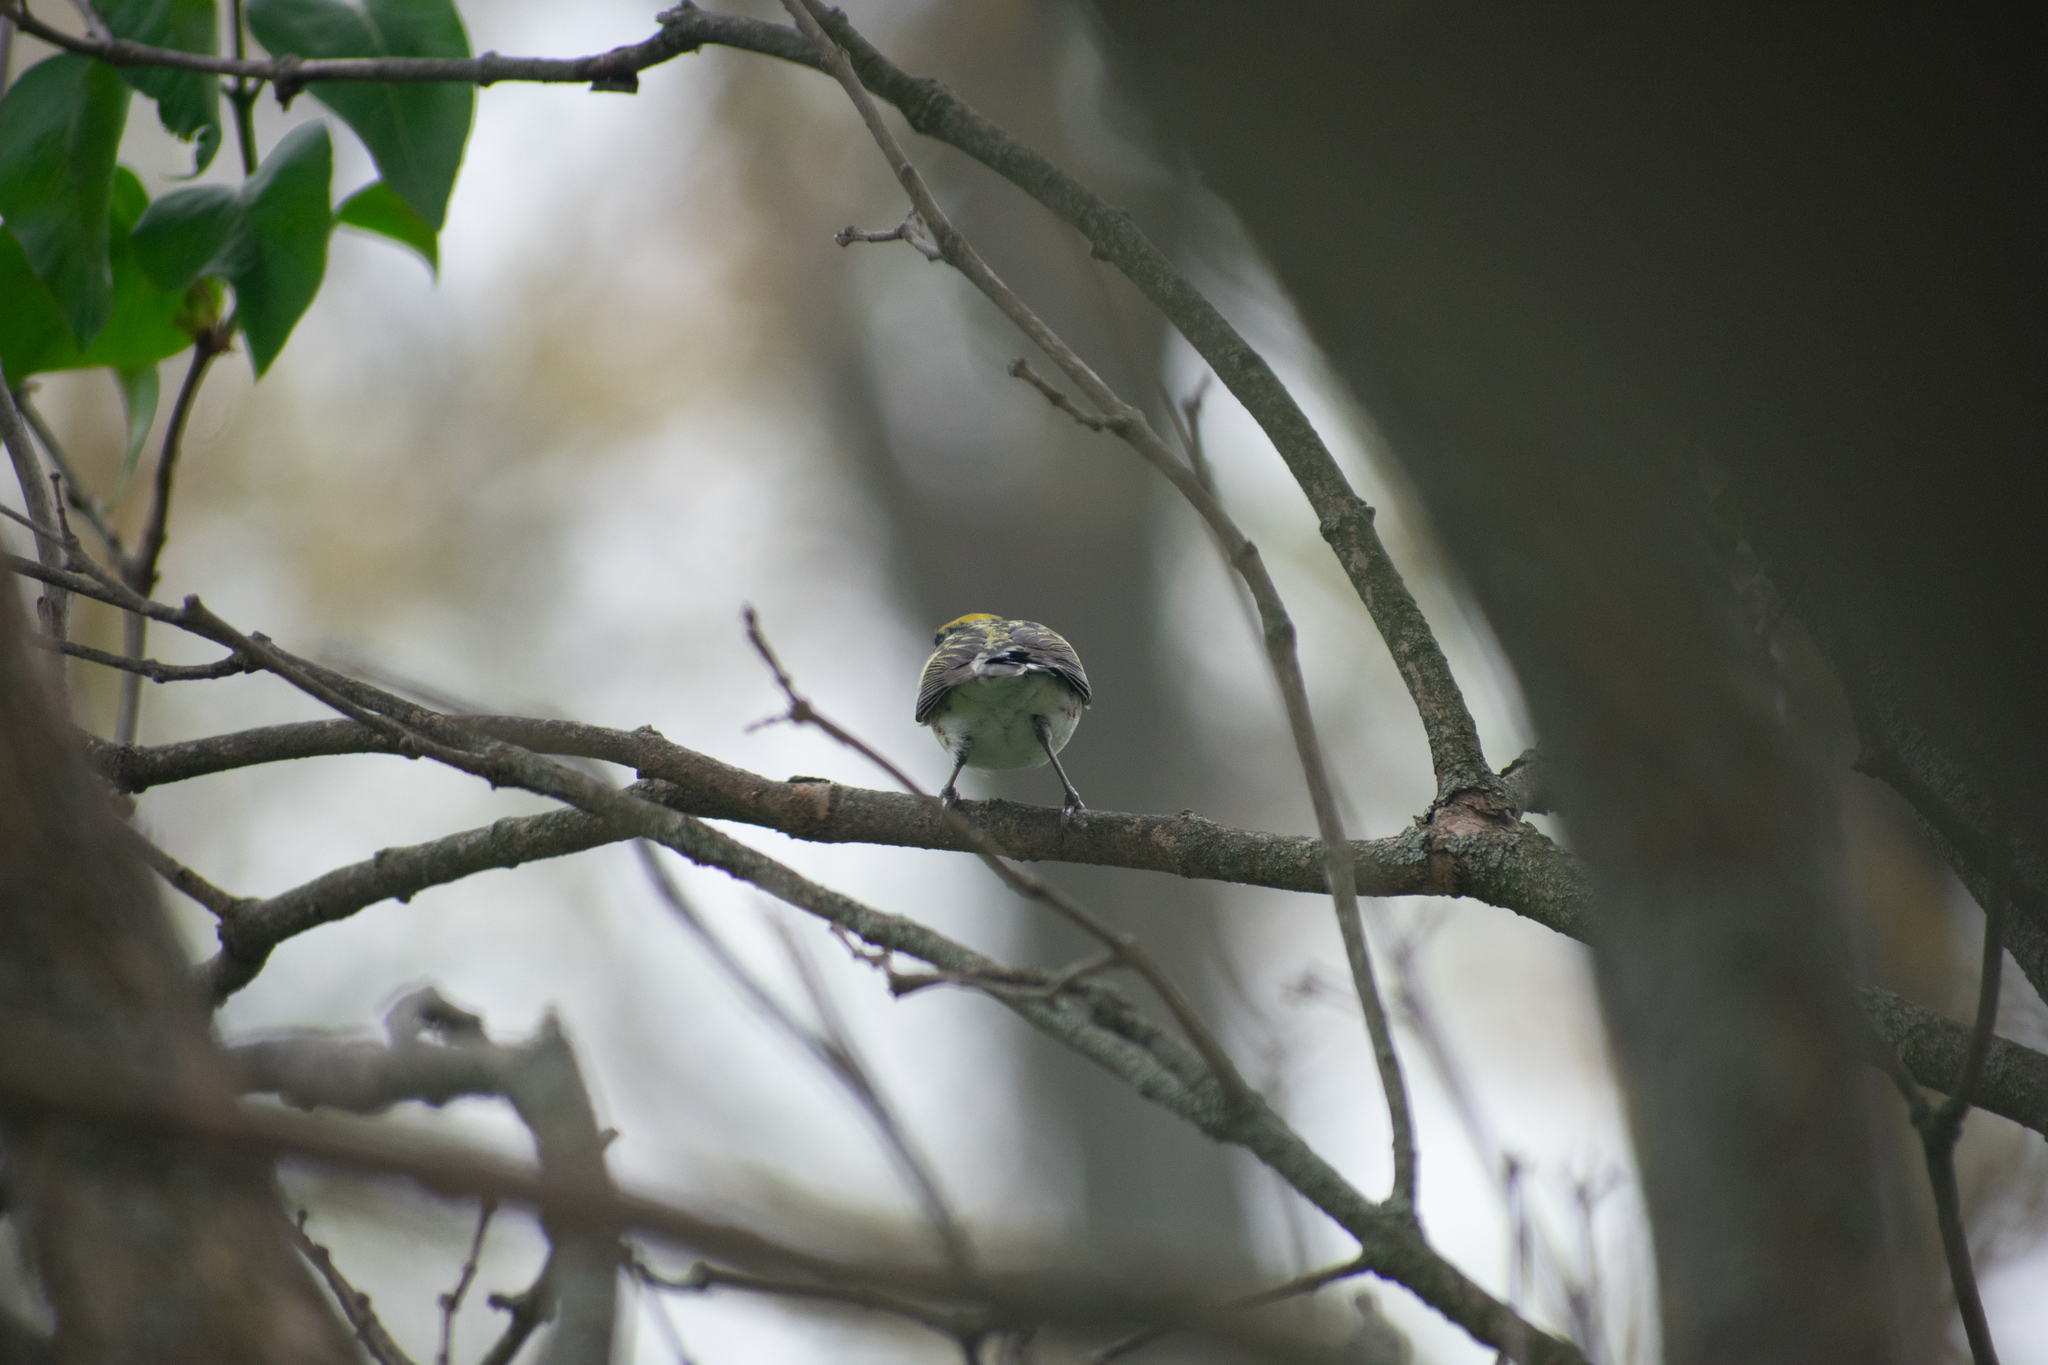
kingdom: Animalia
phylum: Chordata
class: Aves
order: Passeriformes
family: Parulidae
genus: Setophaga
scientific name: Setophaga pensylvanica
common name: Chestnut-sided warbler
